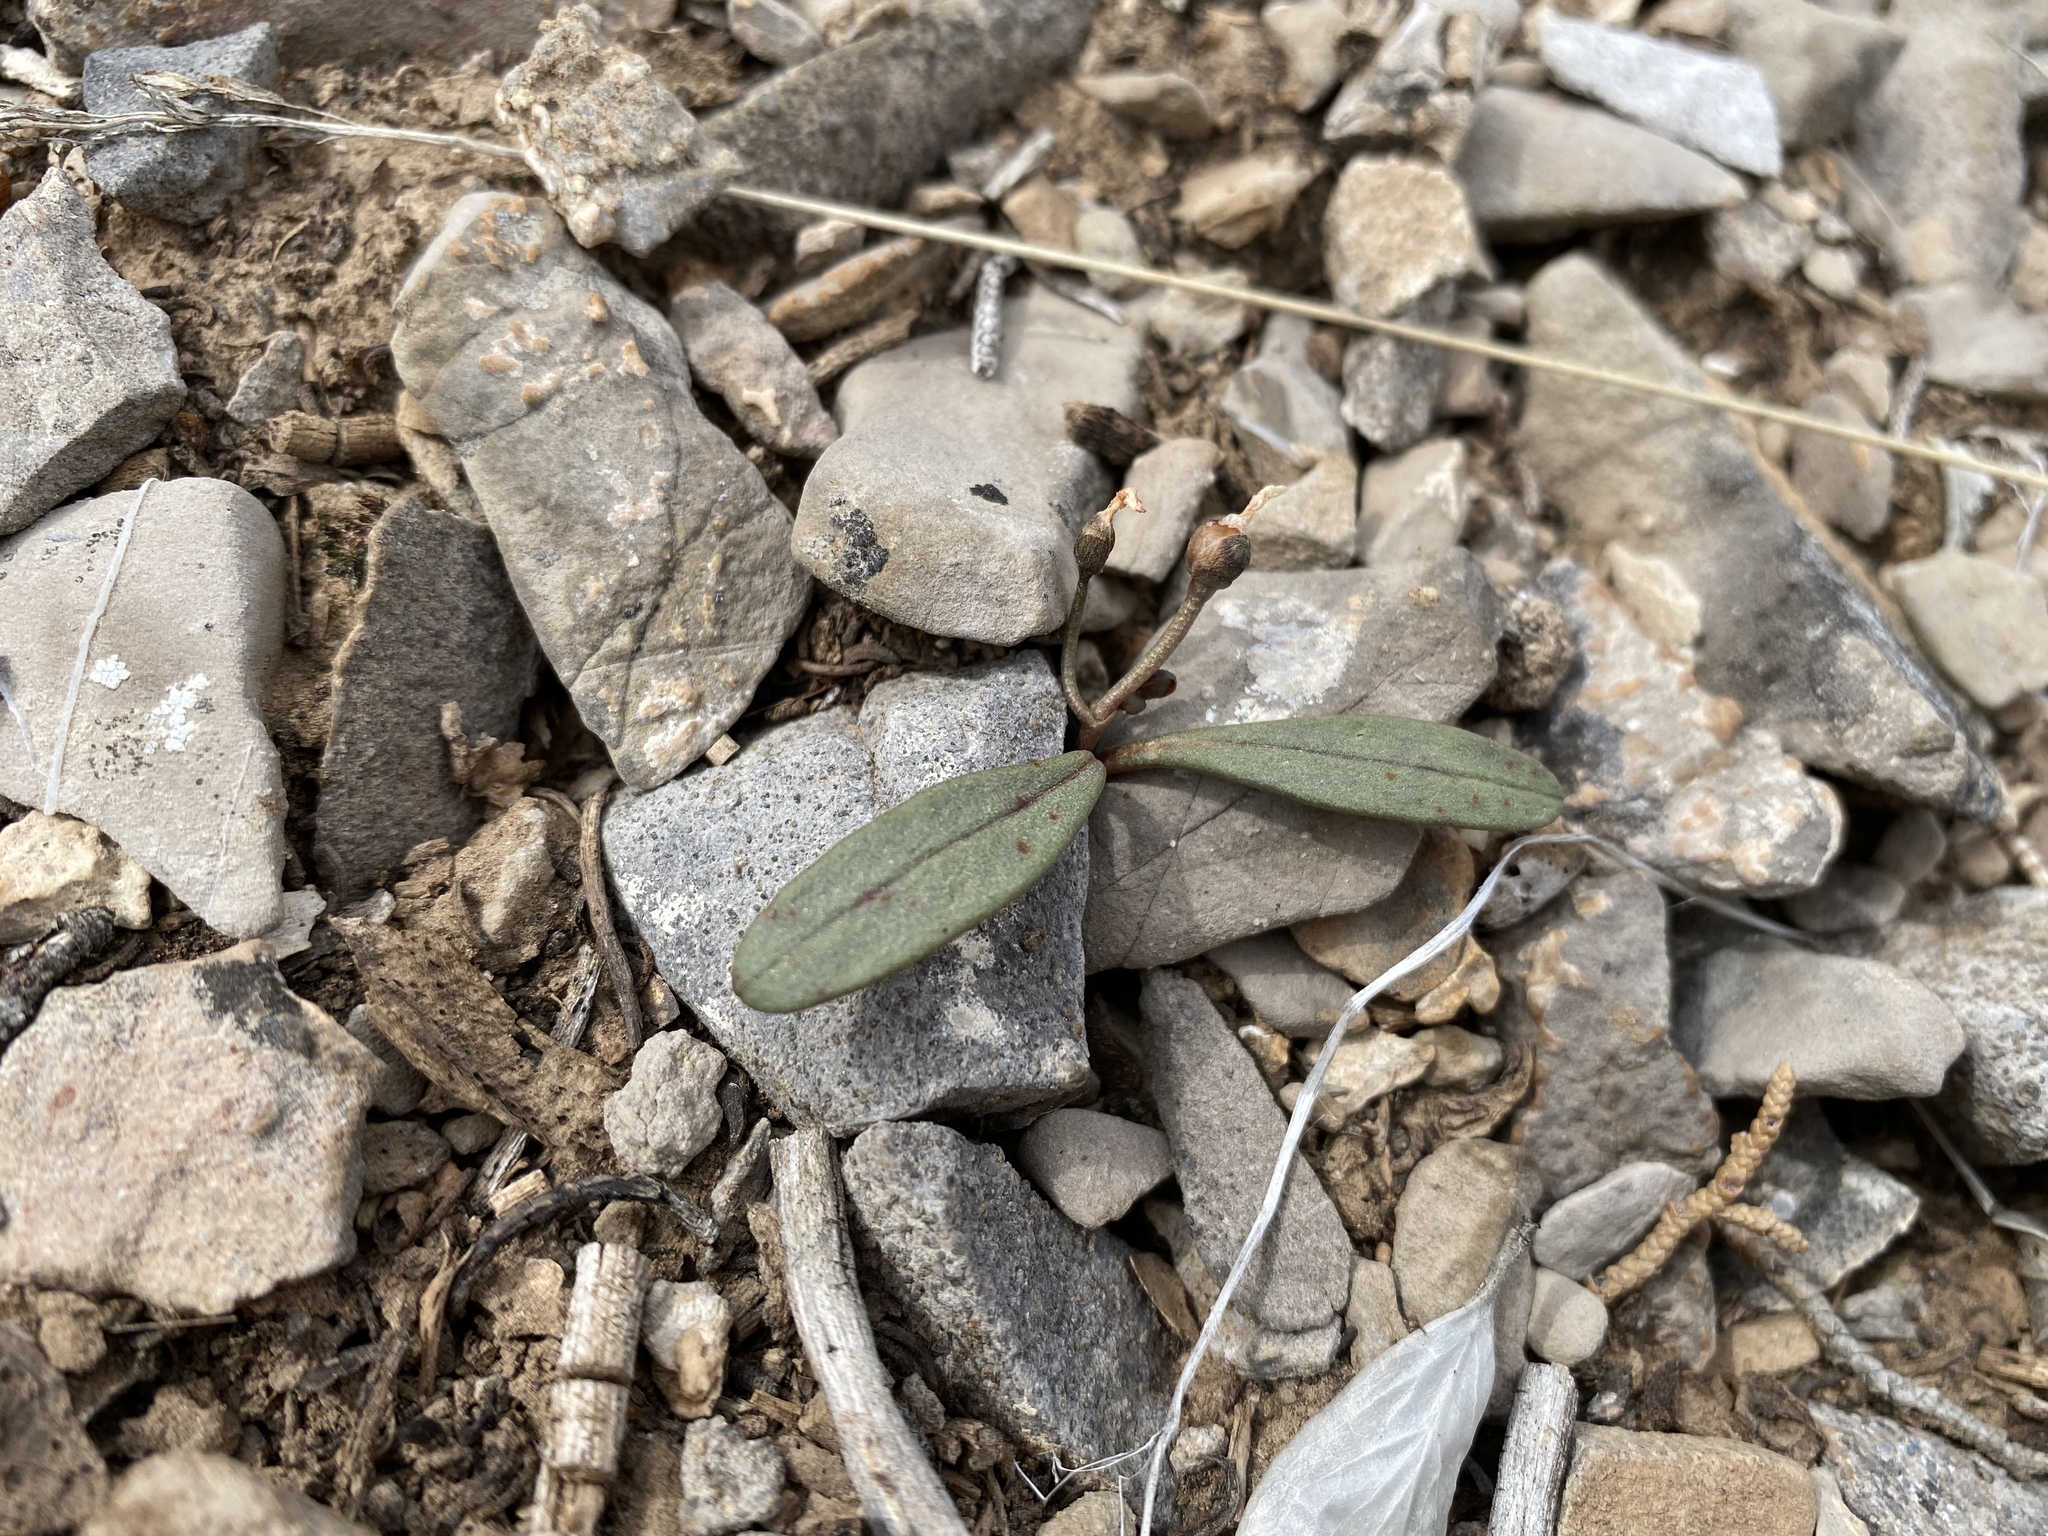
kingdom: Plantae
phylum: Tracheophyta
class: Magnoliopsida
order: Caryophyllales
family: Montiaceae
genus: Claytonia
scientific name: Claytonia panamintensis
